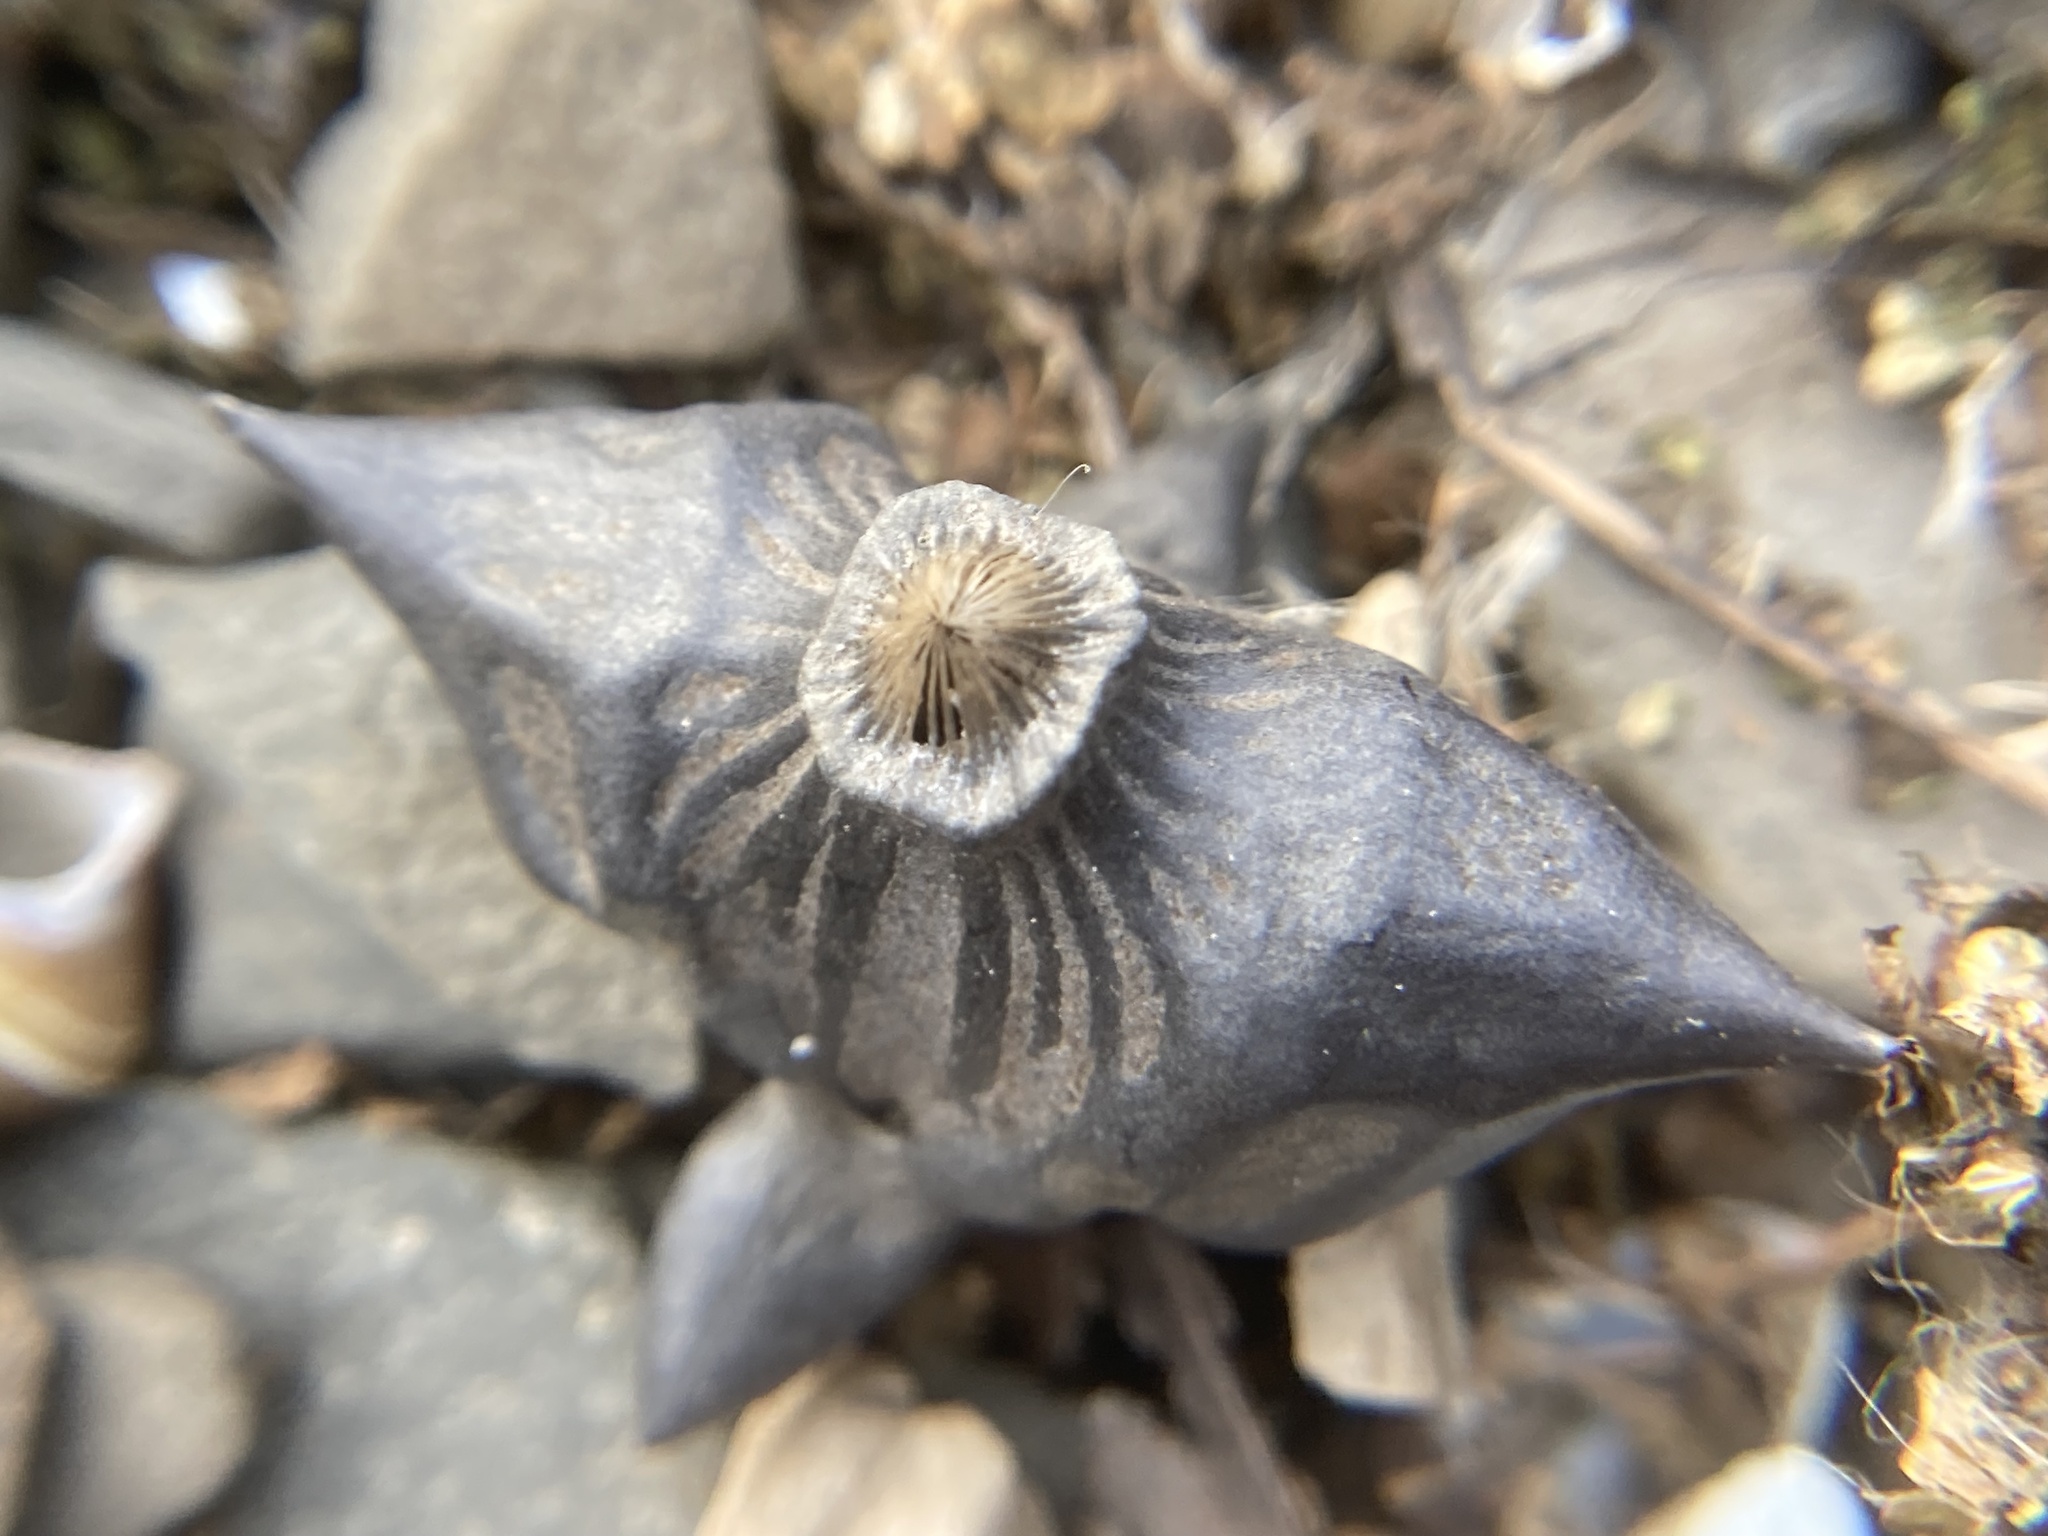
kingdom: Plantae
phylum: Tracheophyta
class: Magnoliopsida
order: Myrtales
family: Lythraceae
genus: Trapa
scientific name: Trapa natans
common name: Water chestnut
